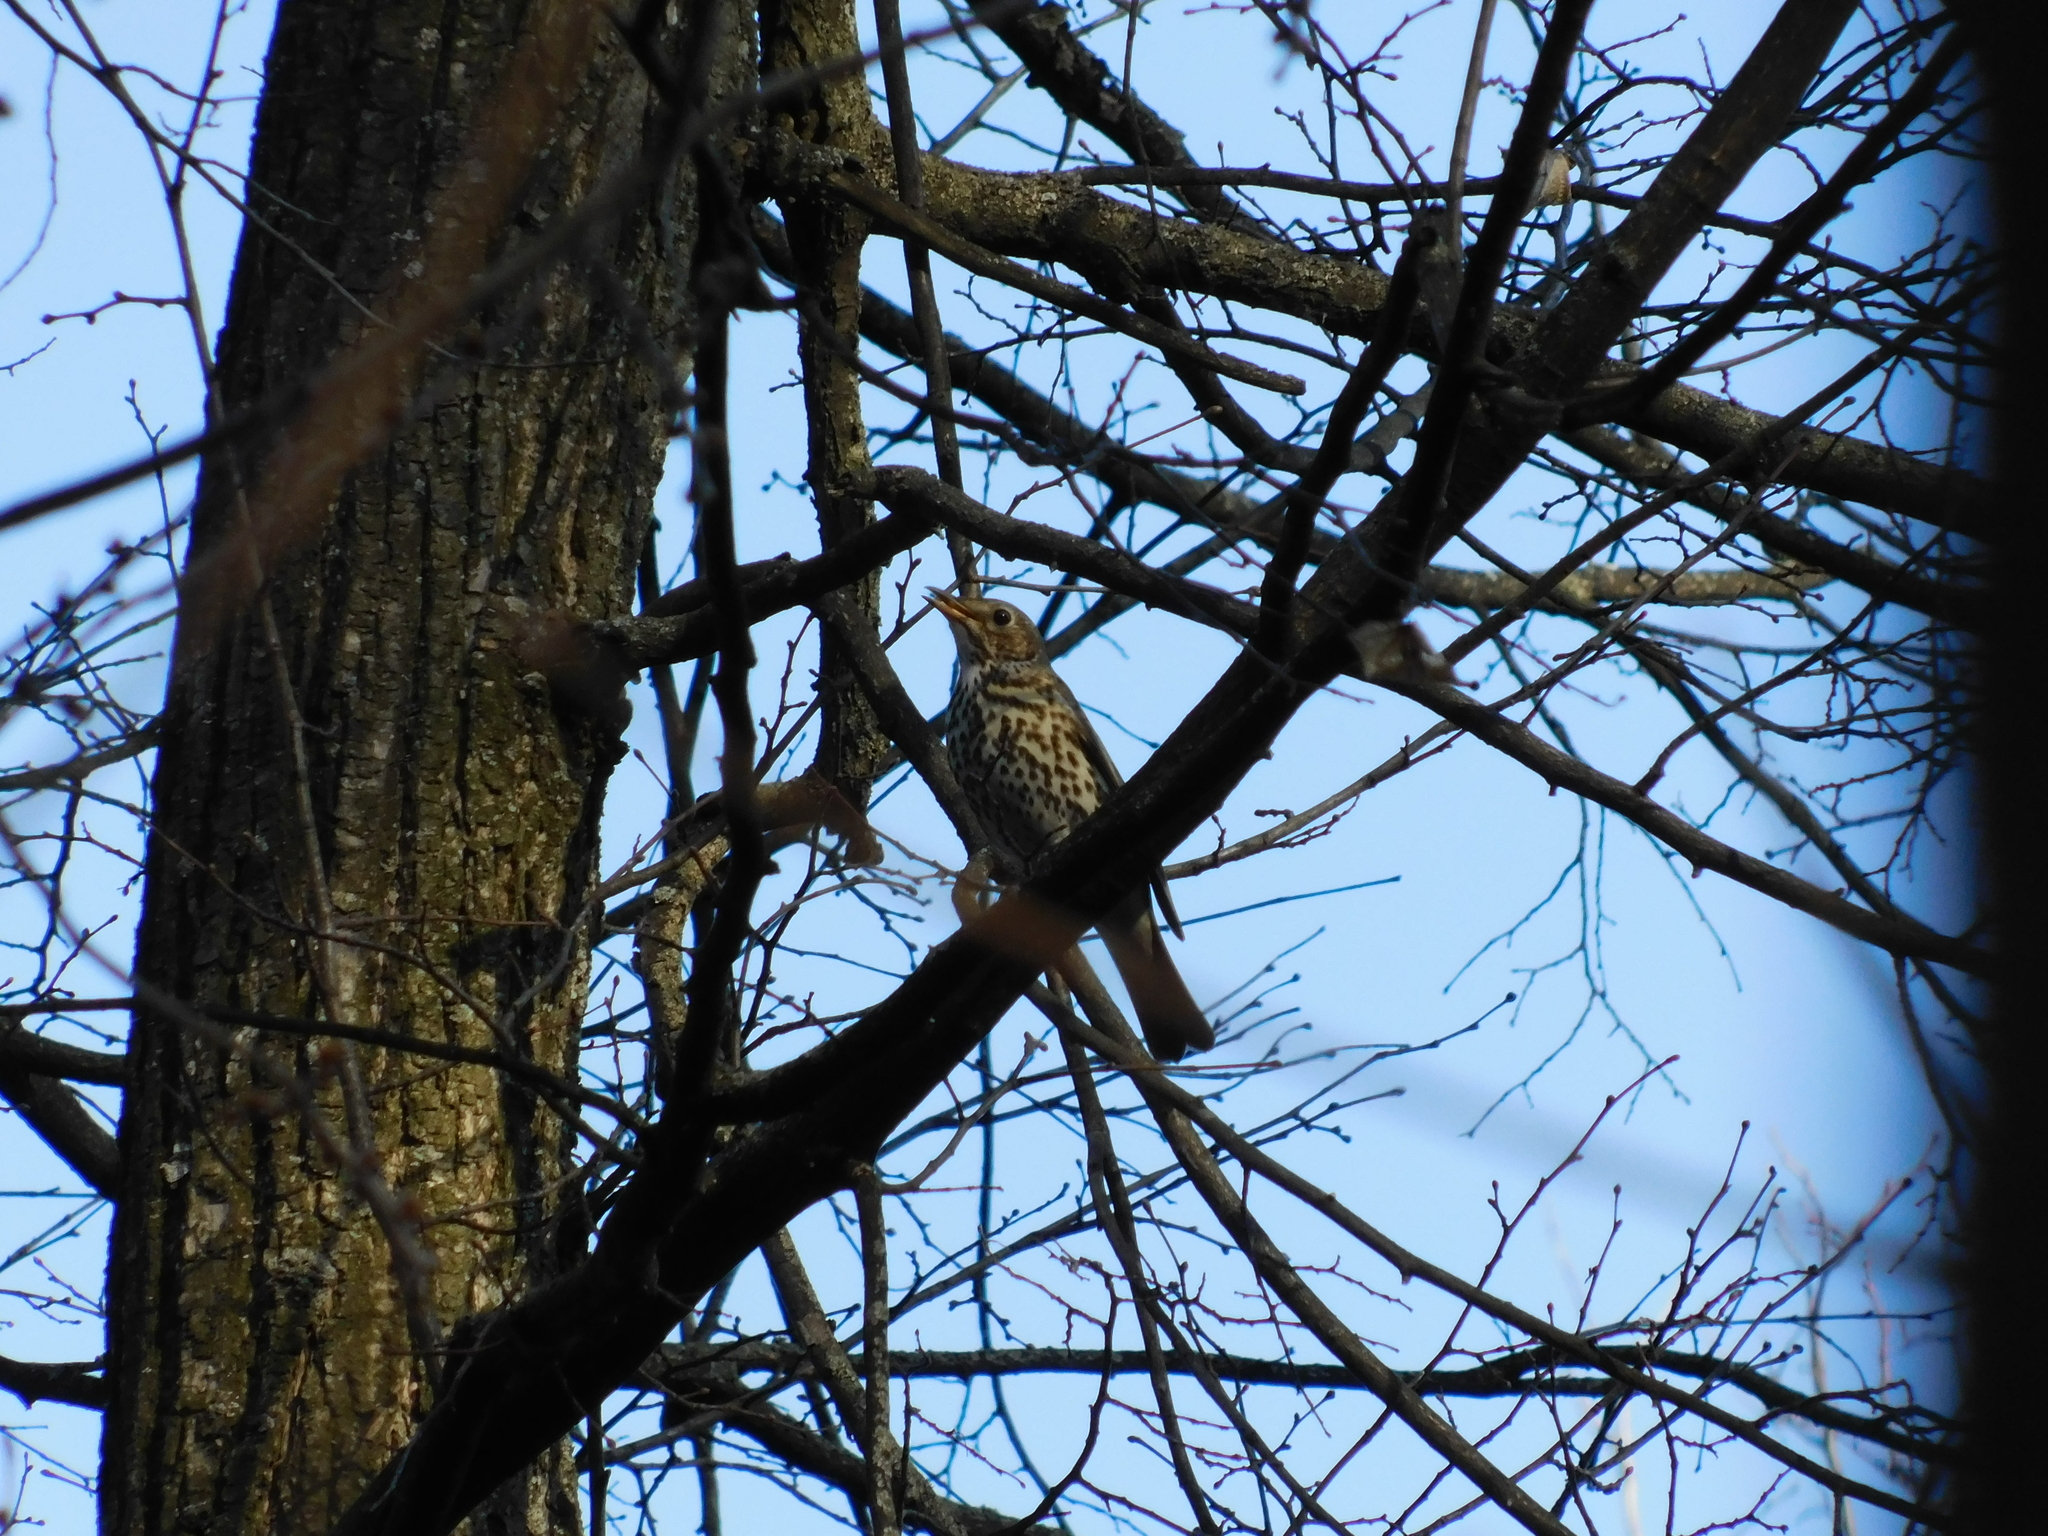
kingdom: Animalia
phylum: Chordata
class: Aves
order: Passeriformes
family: Turdidae
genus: Turdus
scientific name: Turdus philomelos
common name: Song thrush
